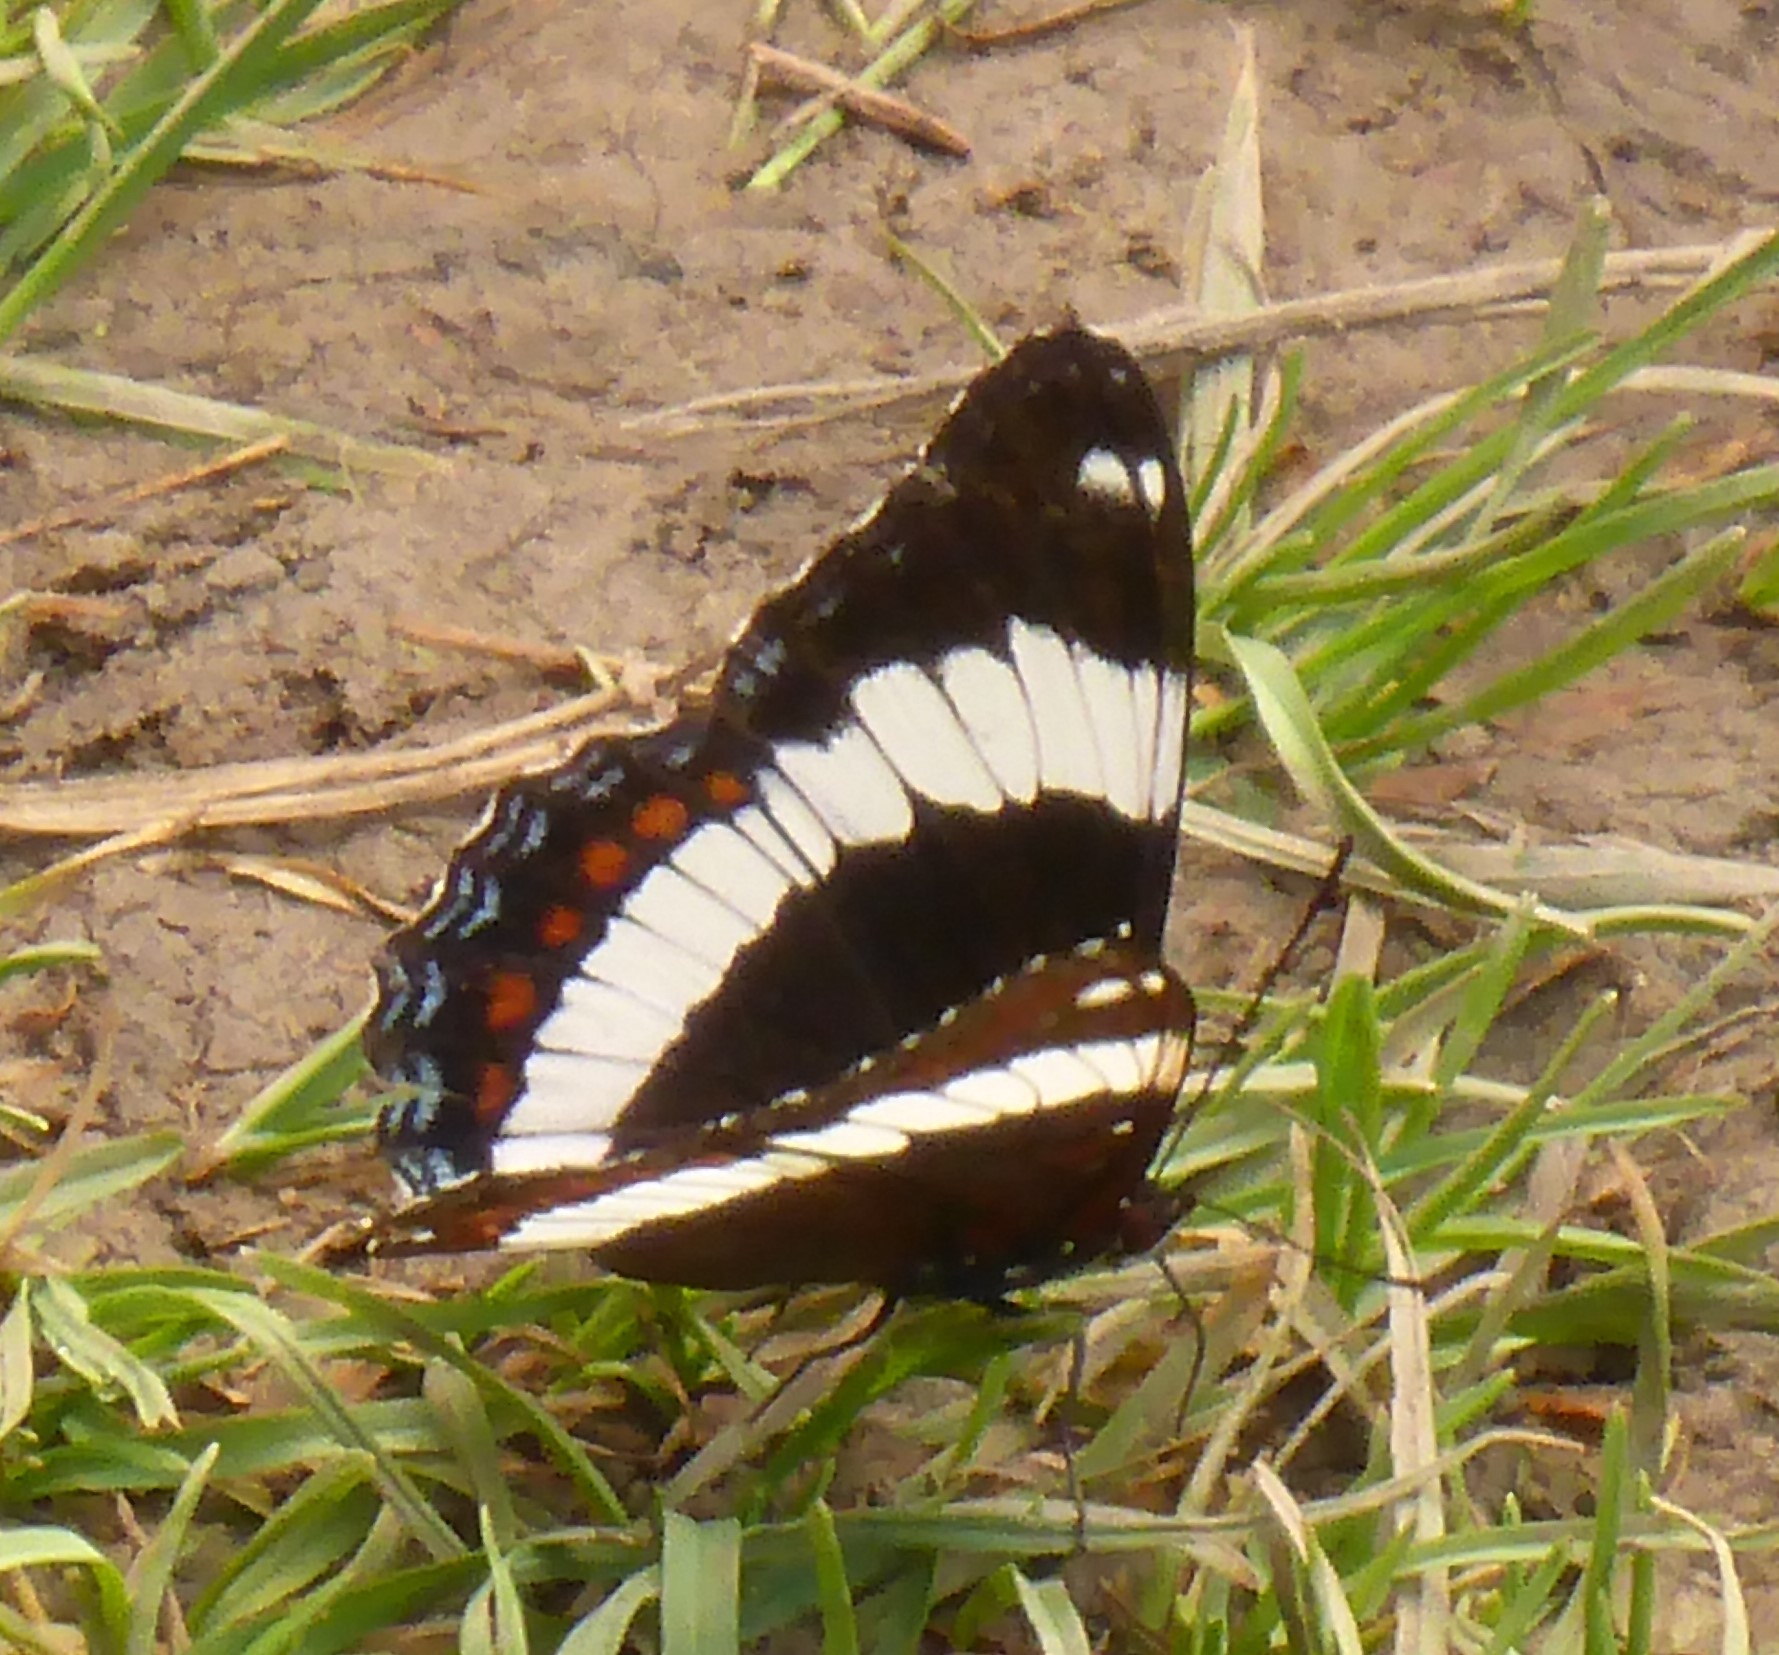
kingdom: Animalia
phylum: Arthropoda
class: Insecta
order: Lepidoptera
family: Nymphalidae
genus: Limenitis
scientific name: Limenitis arthemis
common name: Red-spotted admiral
